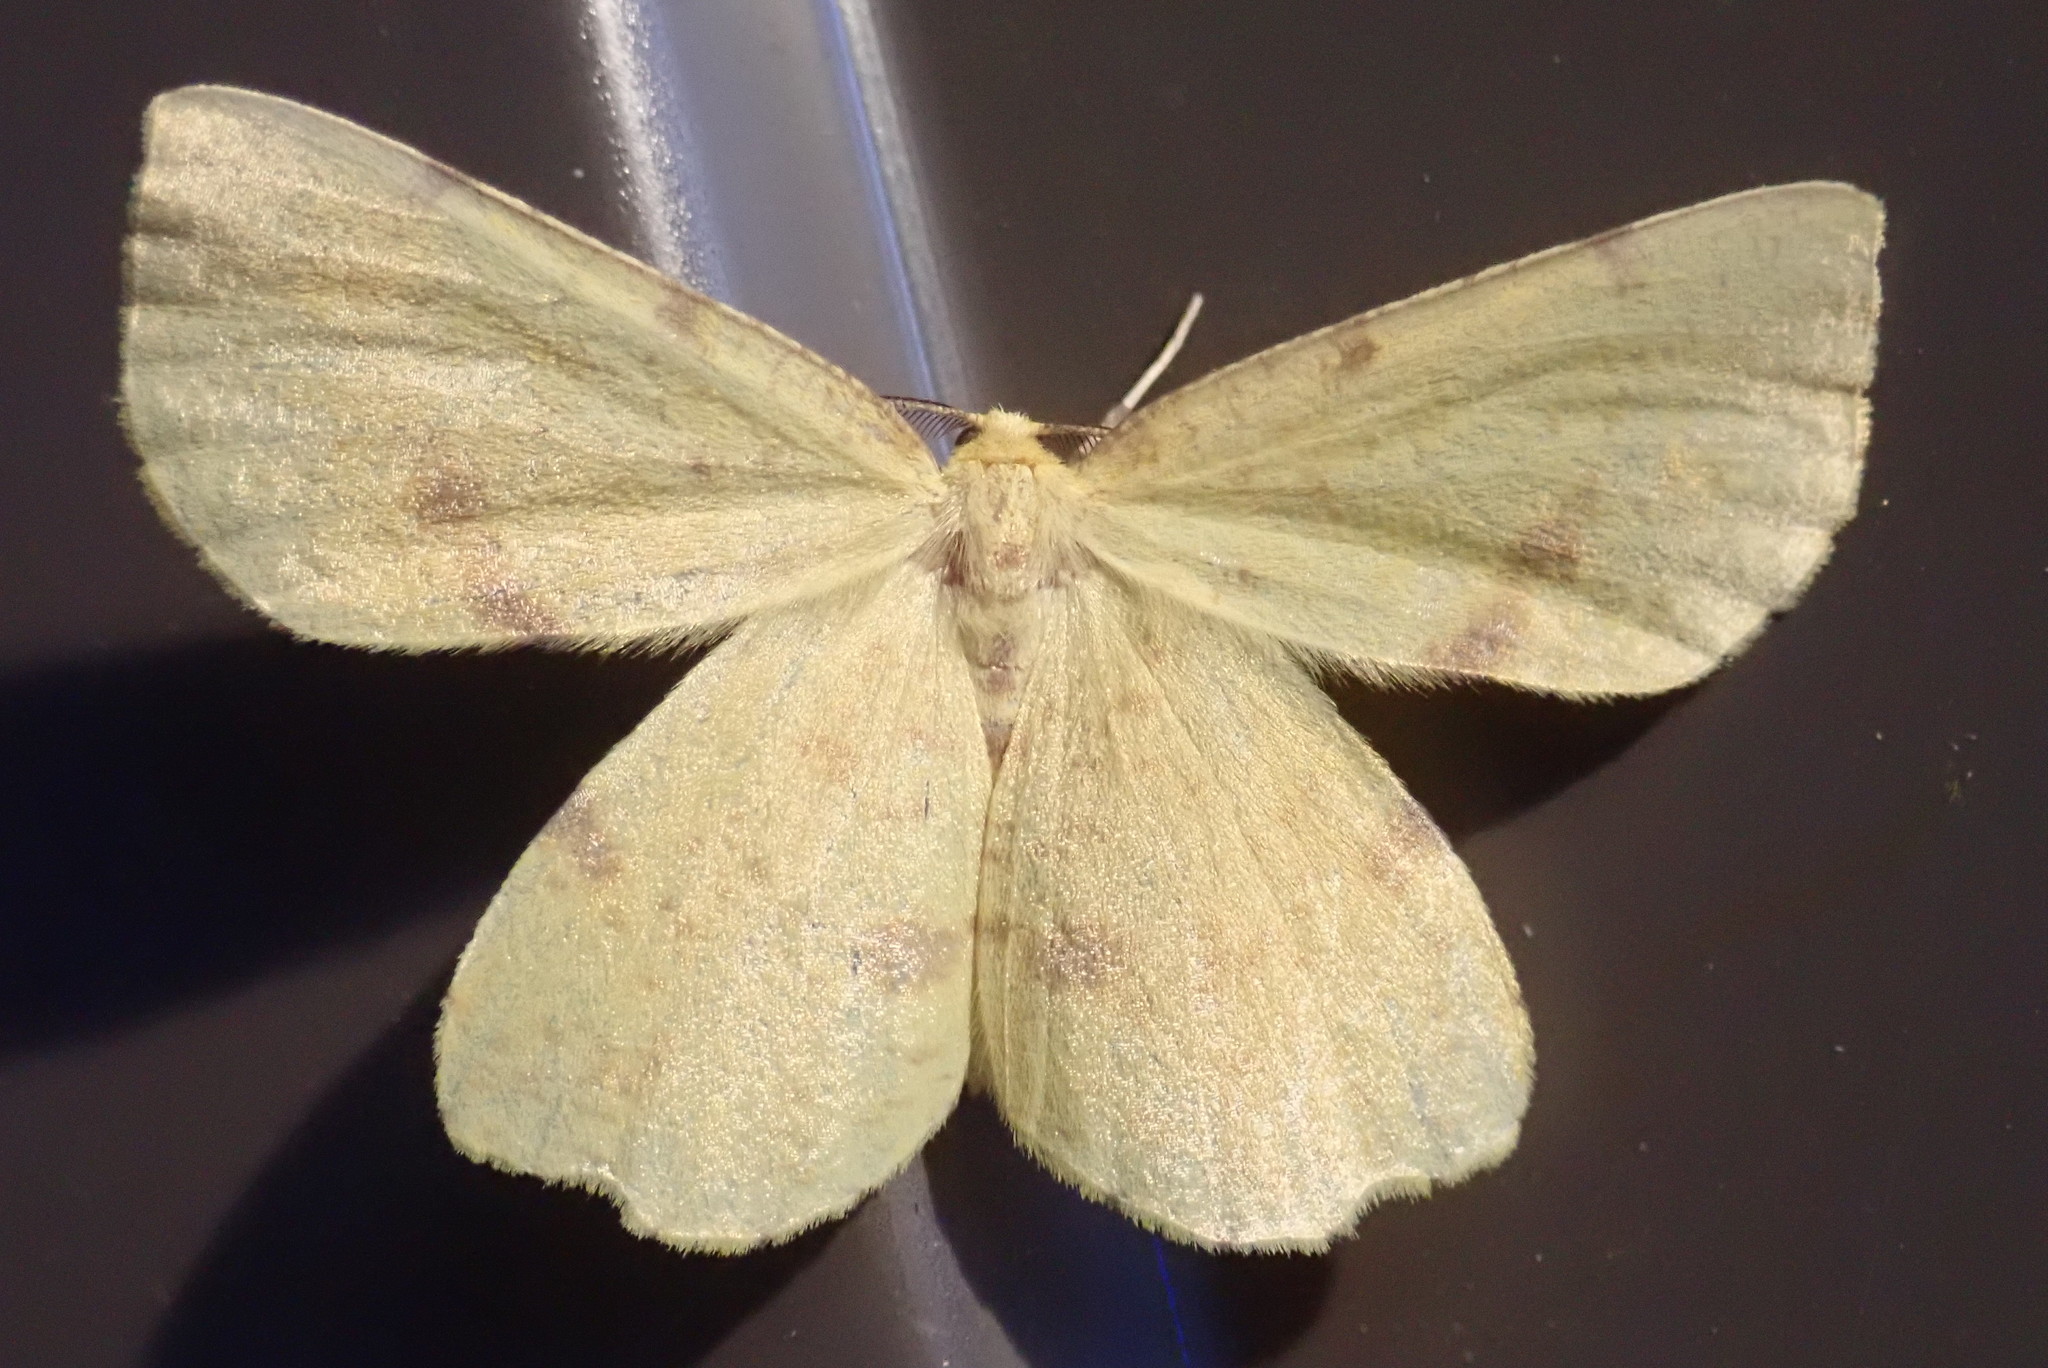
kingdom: Animalia
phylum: Arthropoda
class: Insecta
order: Lepidoptera
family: Geometridae
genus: Xanthotype
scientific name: Xanthotype
